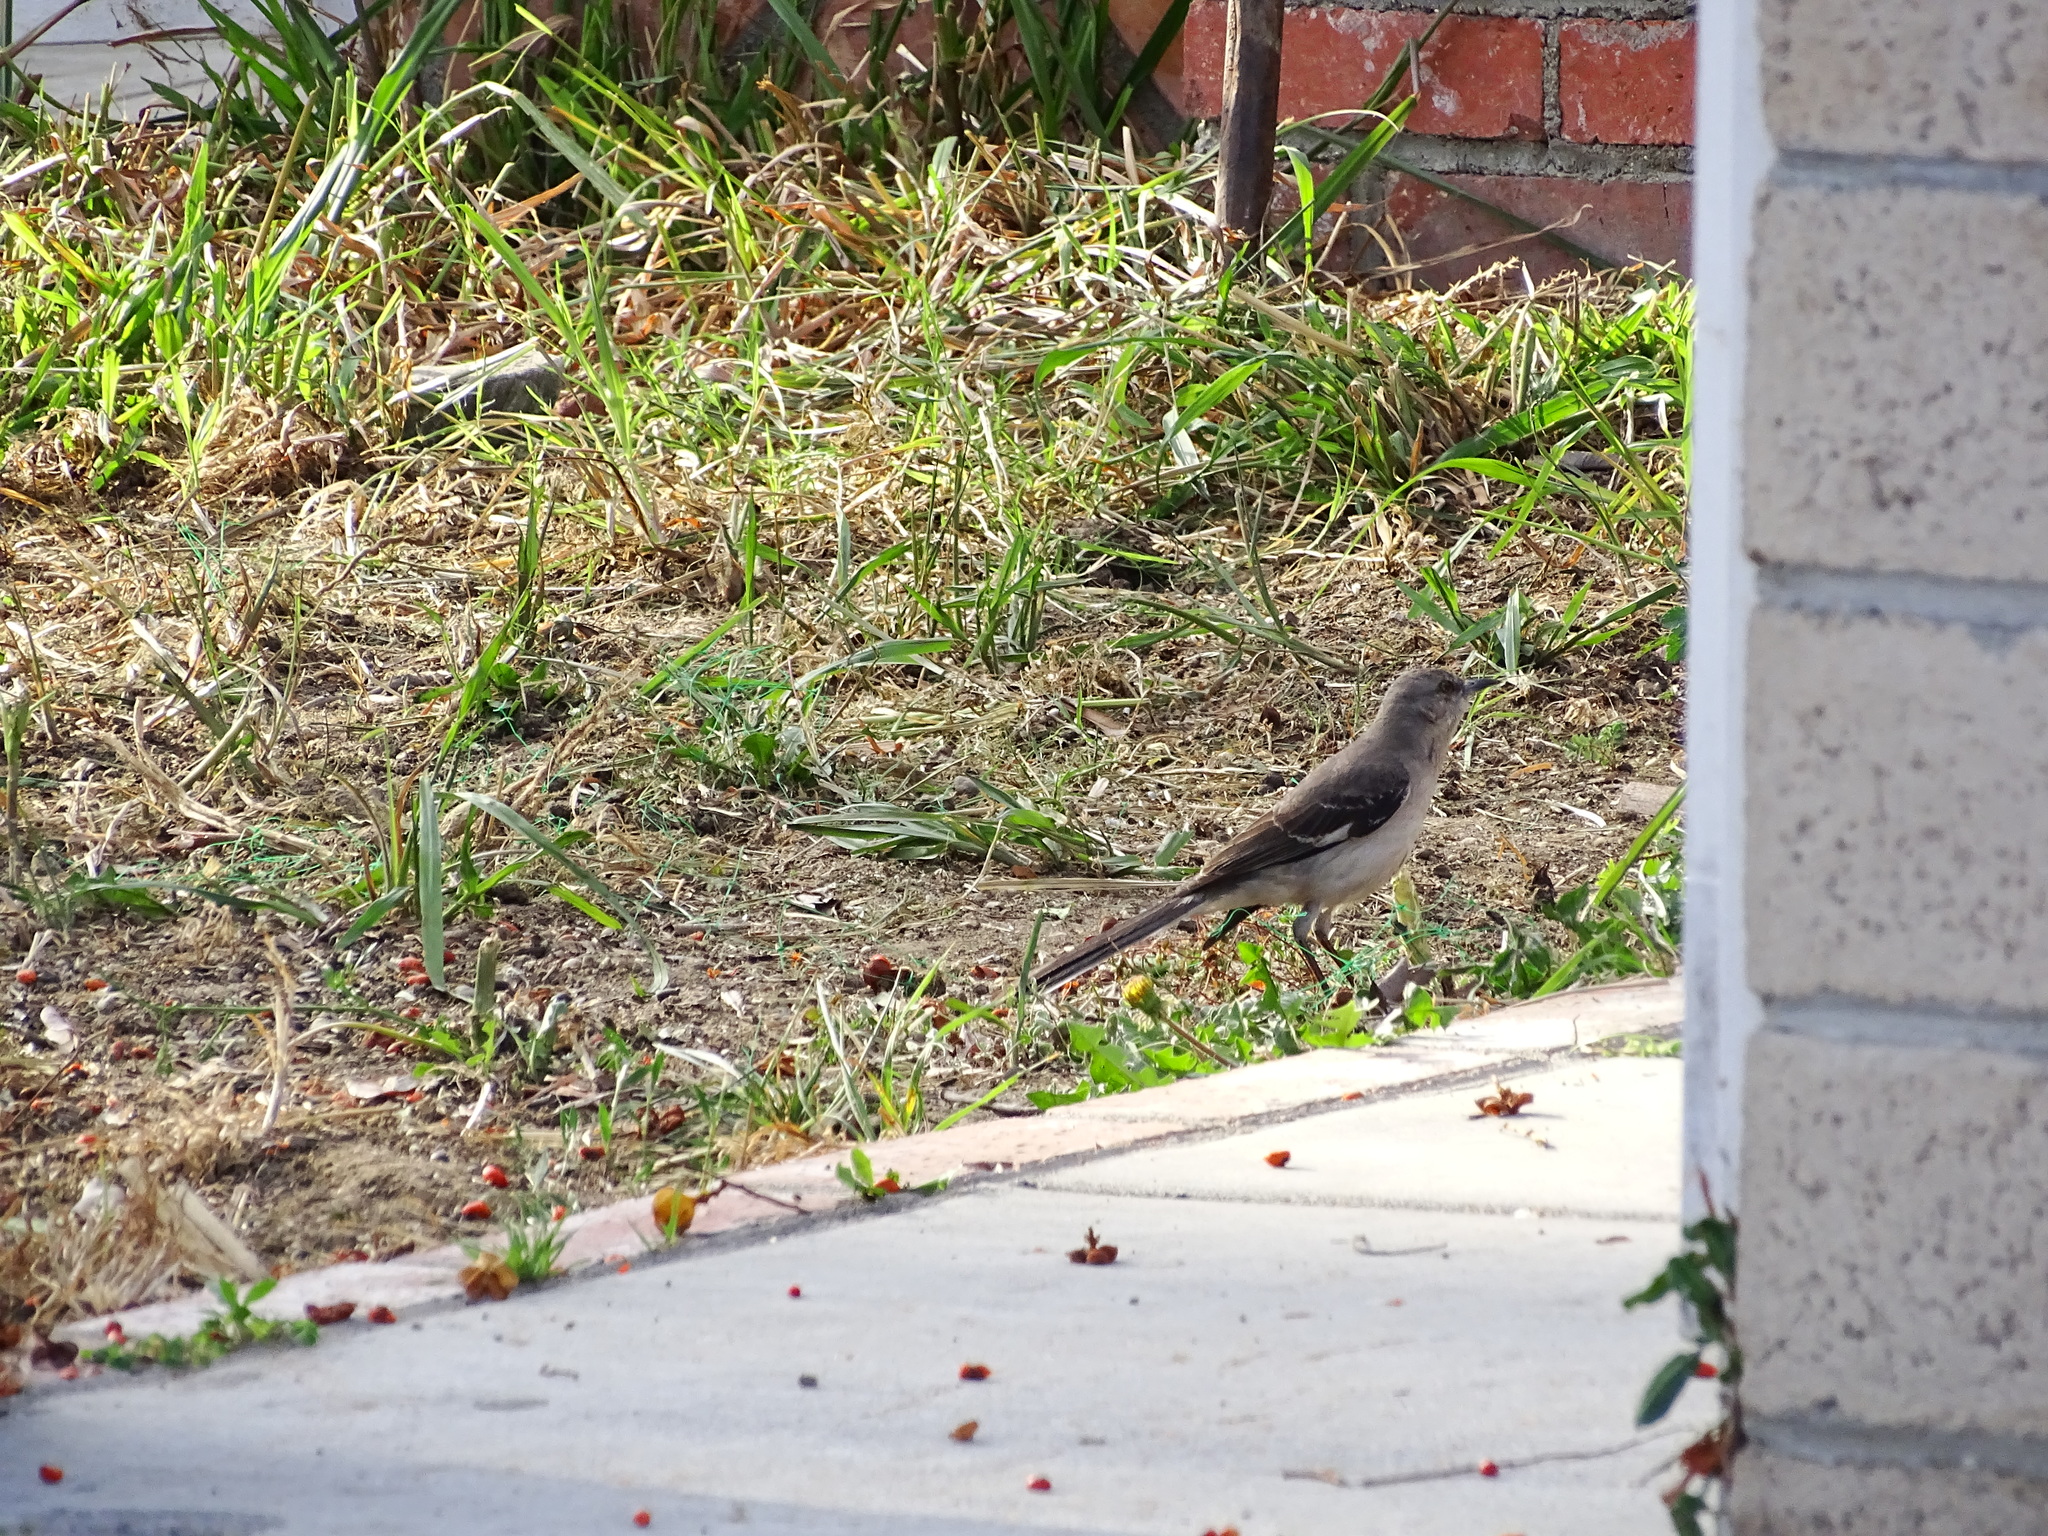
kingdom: Animalia
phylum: Chordata
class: Aves
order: Passeriformes
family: Mimidae
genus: Mimus
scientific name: Mimus polyglottos
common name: Northern mockingbird
